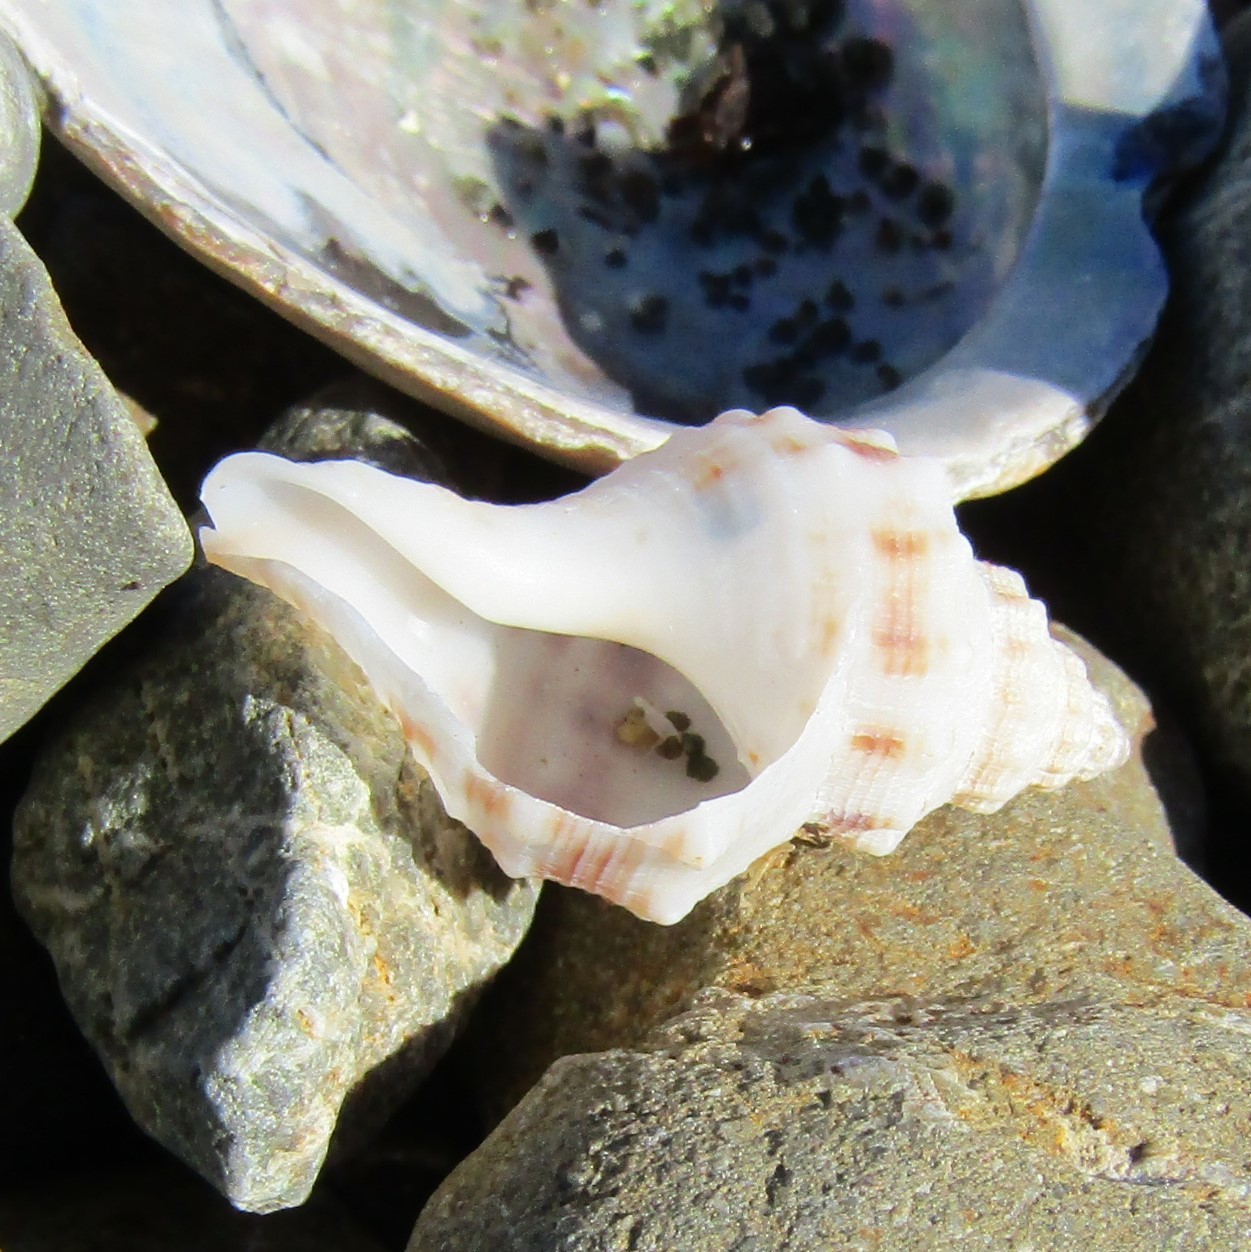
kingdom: Animalia
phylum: Mollusca
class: Gastropoda
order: Neogastropoda
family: Prosiphonidae
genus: Austrofusus
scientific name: Austrofusus glans
